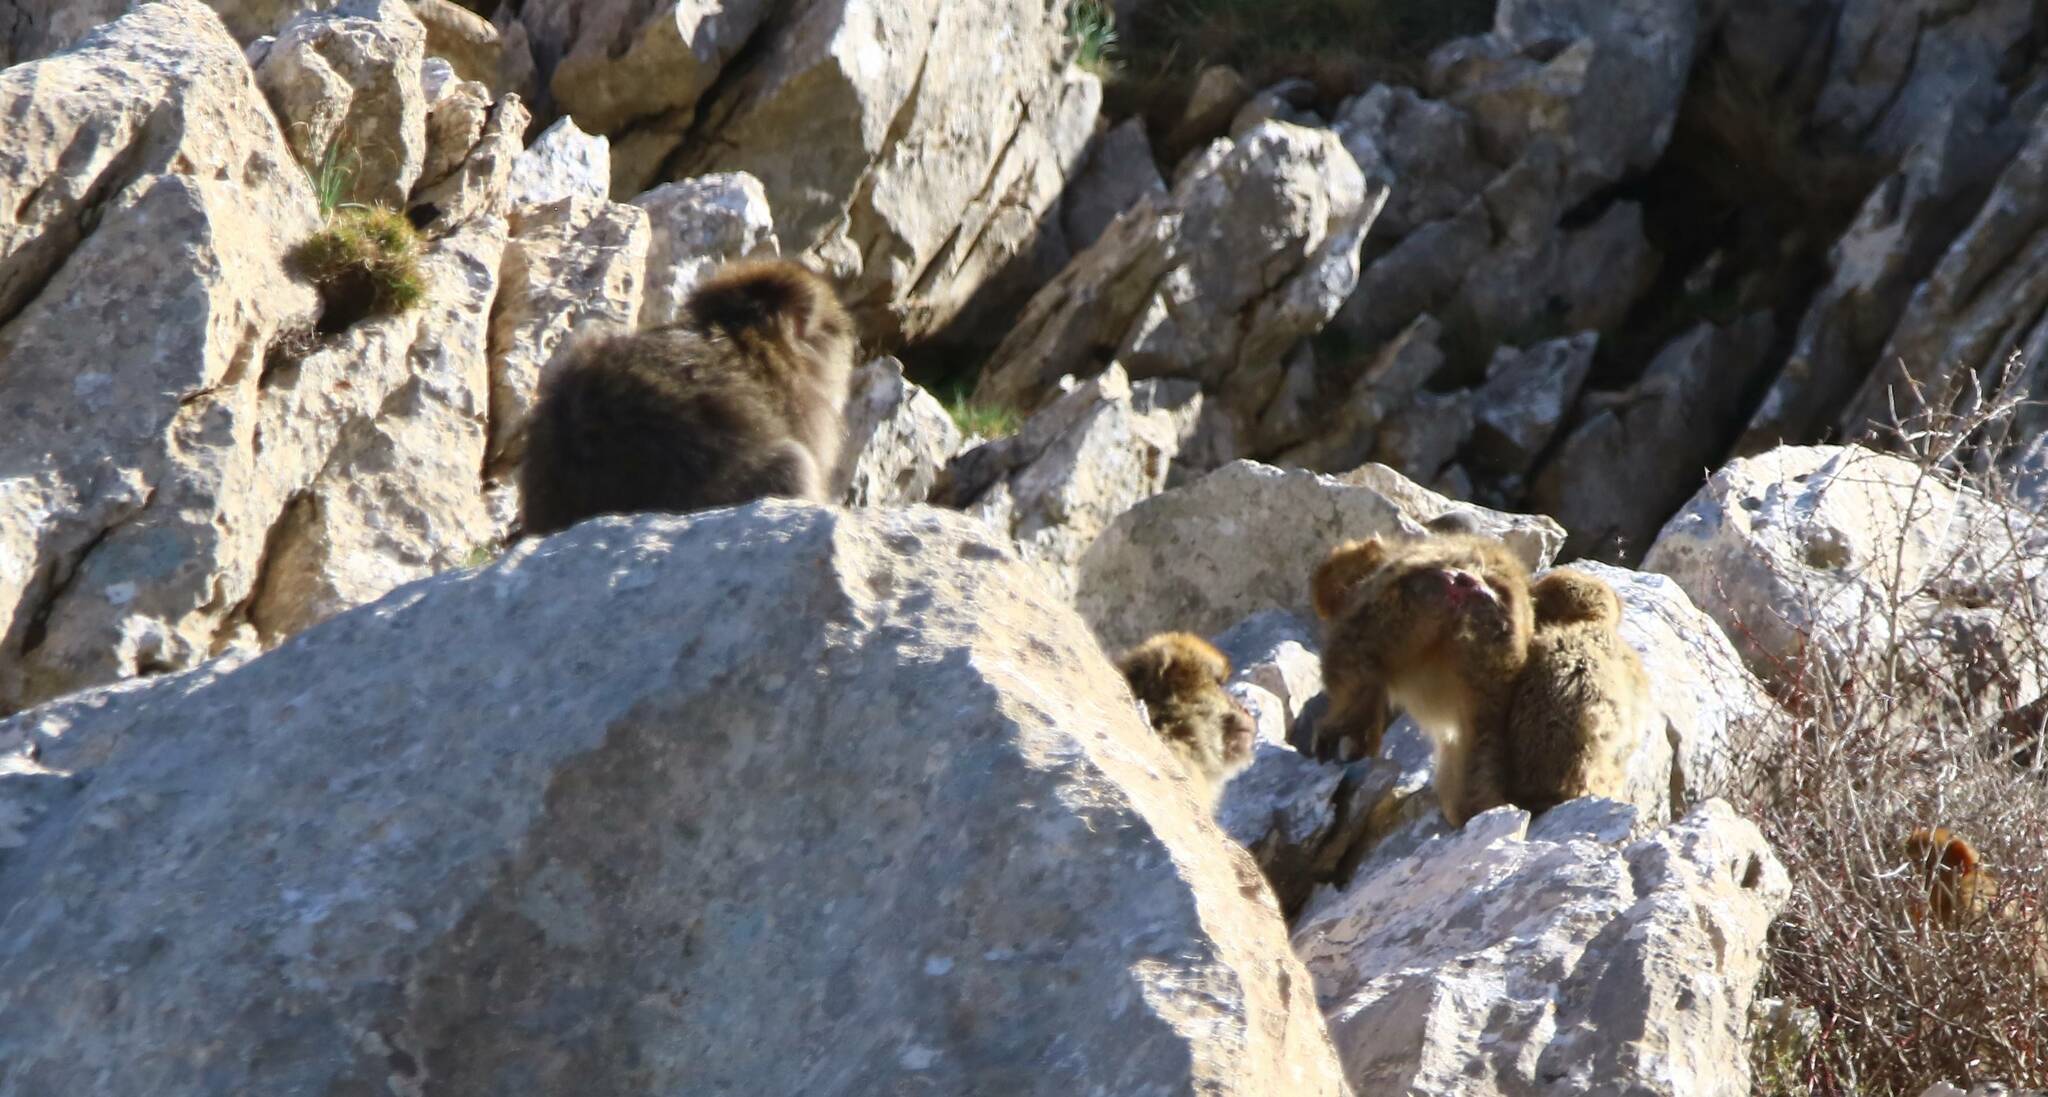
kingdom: Animalia
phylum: Chordata
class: Mammalia
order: Primates
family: Cercopithecidae
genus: Macaca
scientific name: Macaca sylvanus
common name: Barbary macaque
